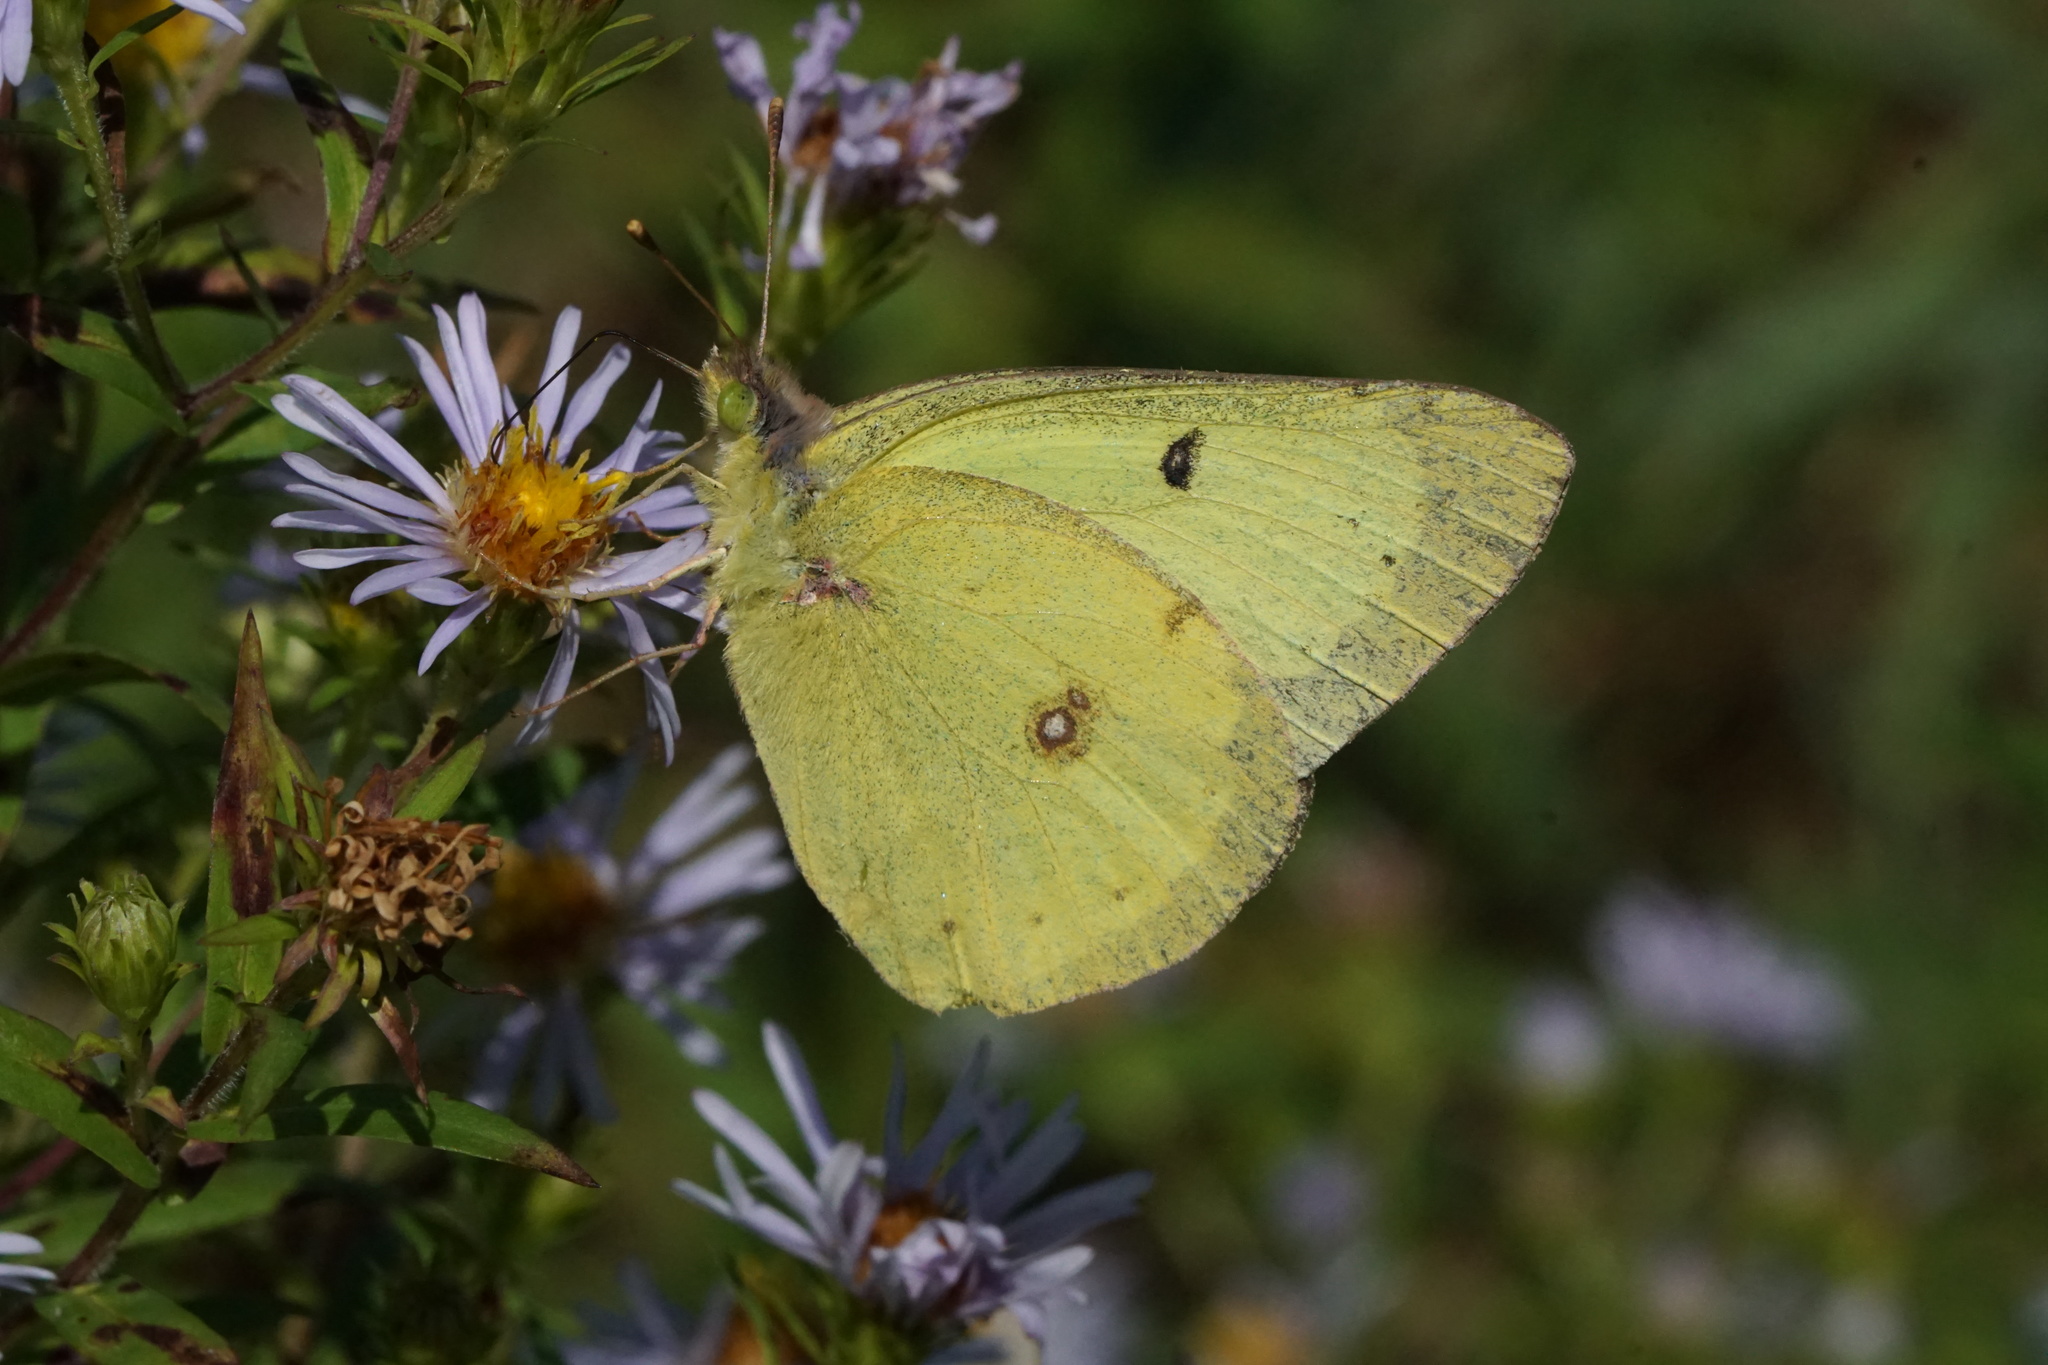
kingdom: Animalia
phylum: Arthropoda
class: Insecta
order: Lepidoptera
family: Pieridae
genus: Colias
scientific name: Colias philodice
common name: Clouded sulphur
